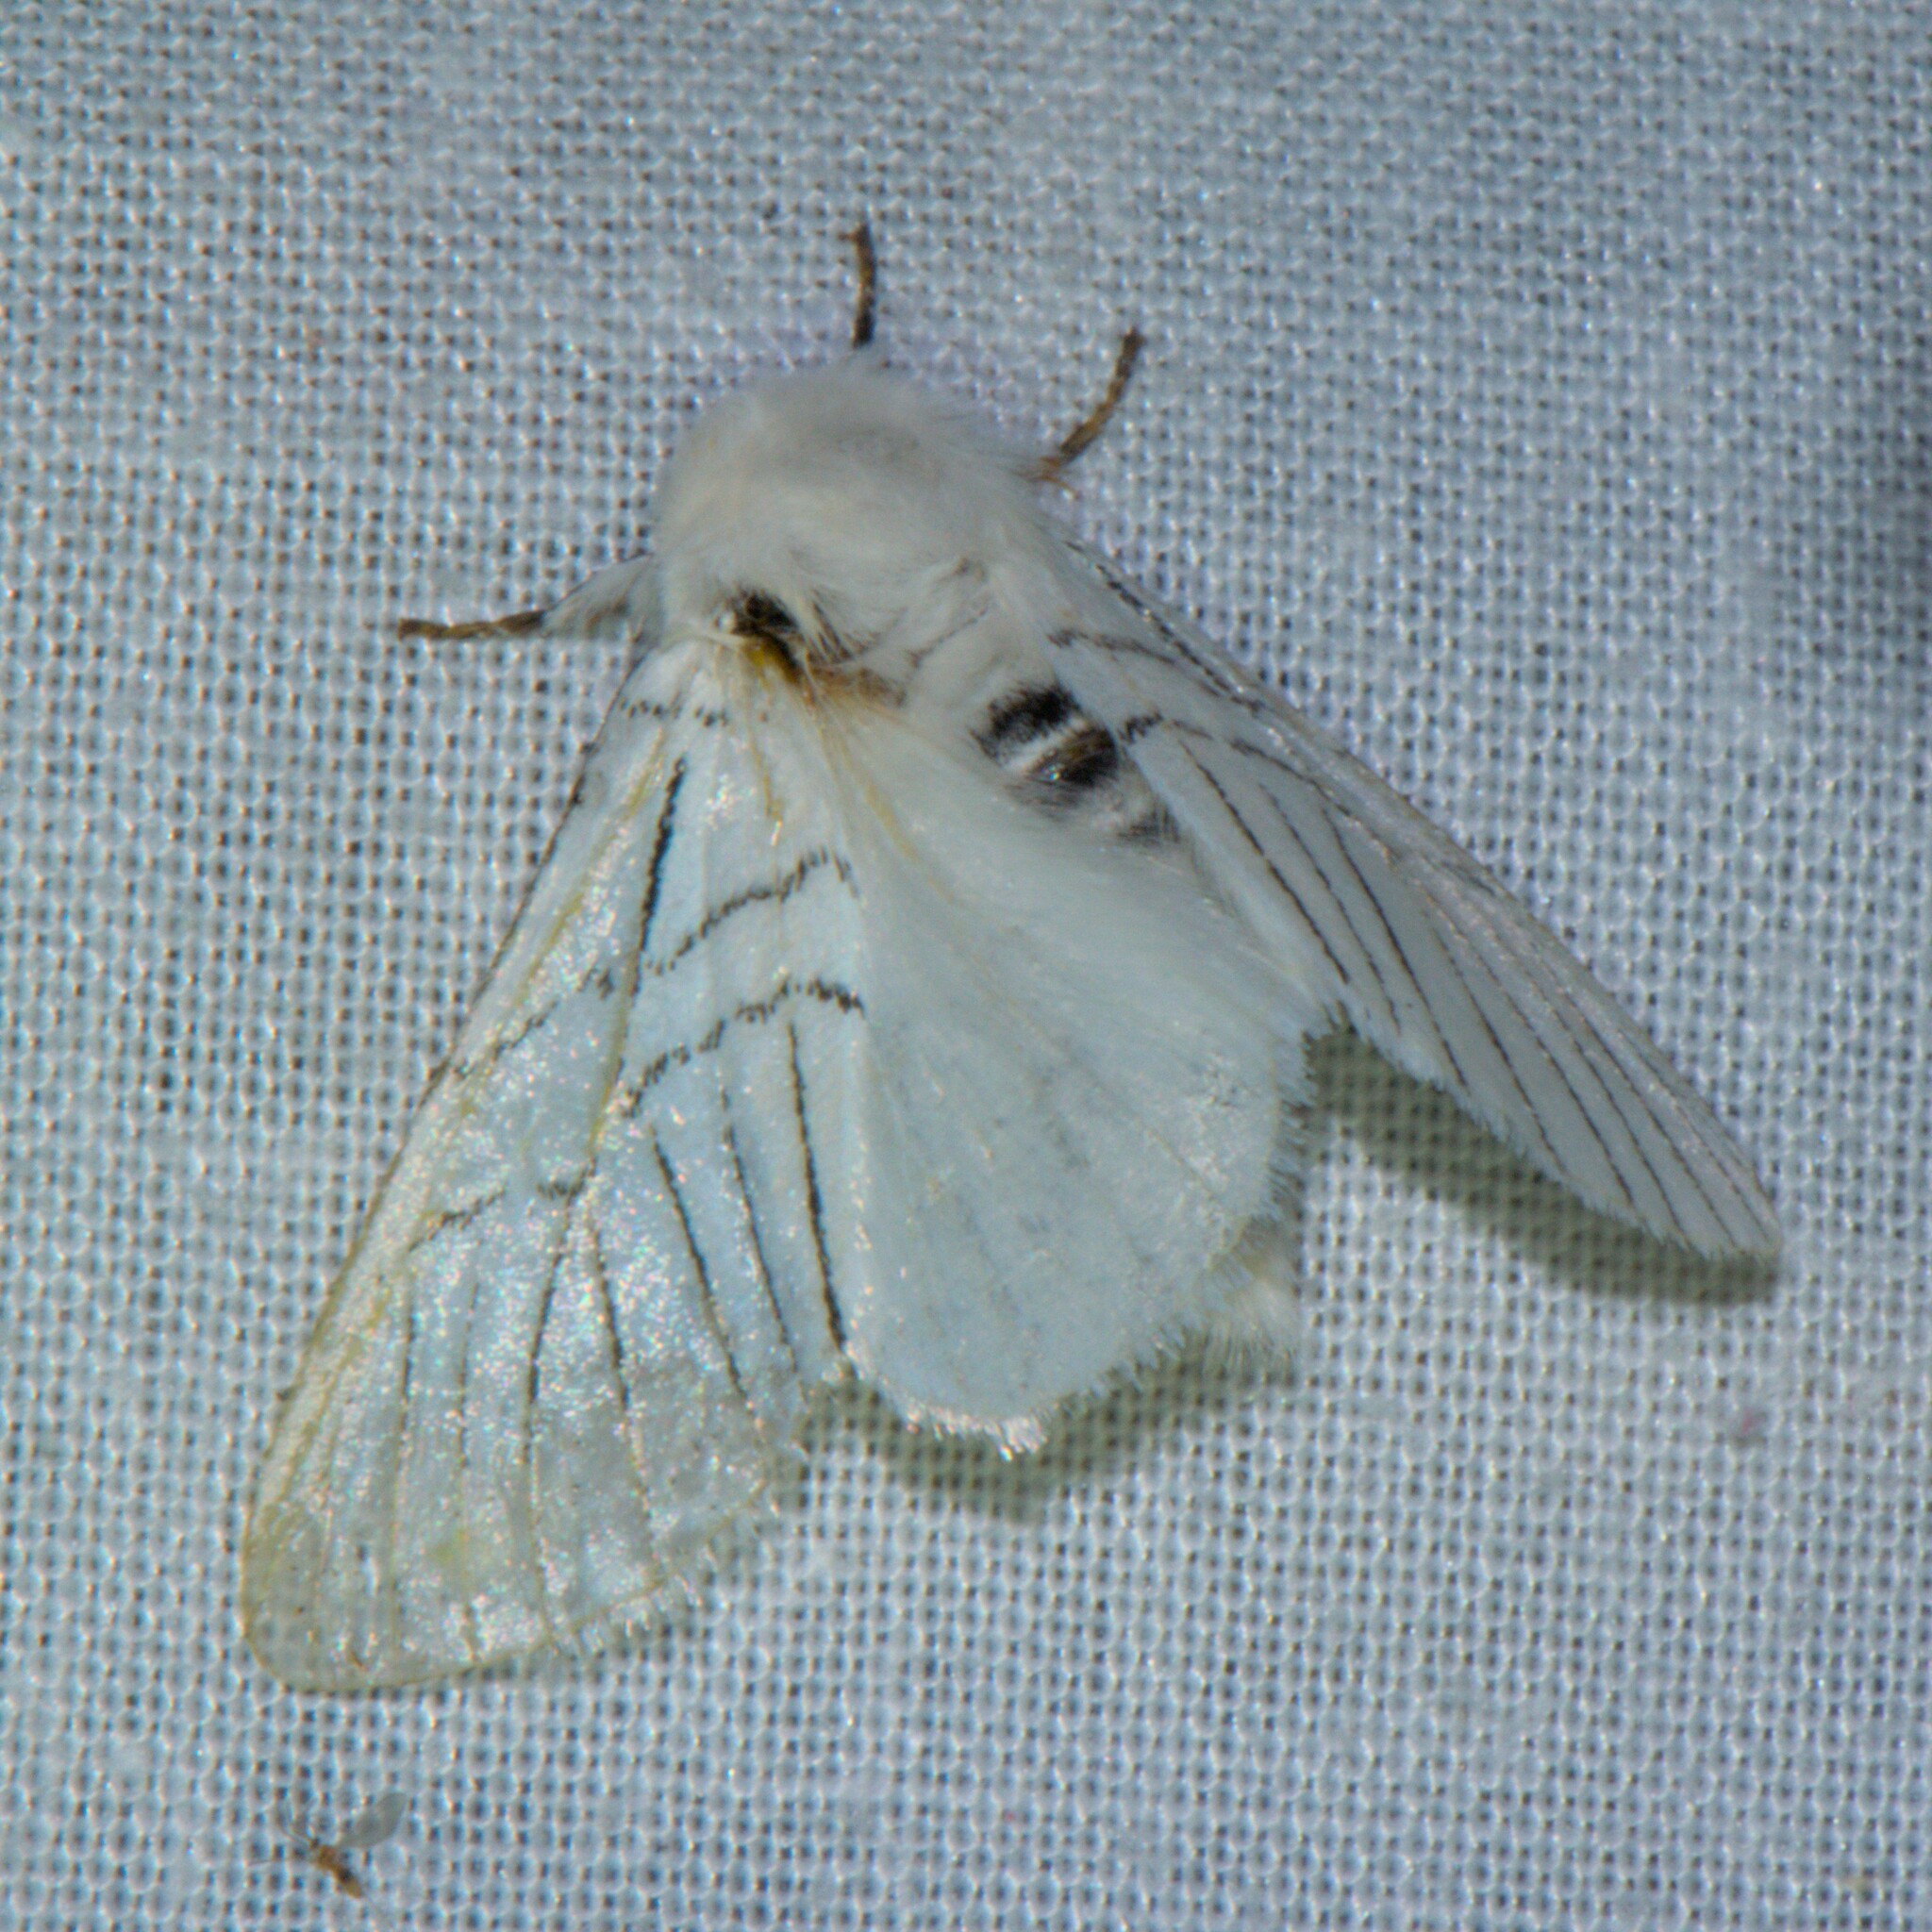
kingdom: Animalia
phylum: Arthropoda
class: Insecta
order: Lepidoptera
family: Notodontidae
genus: Oligoclona
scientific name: Oligoclona chrysolopha
